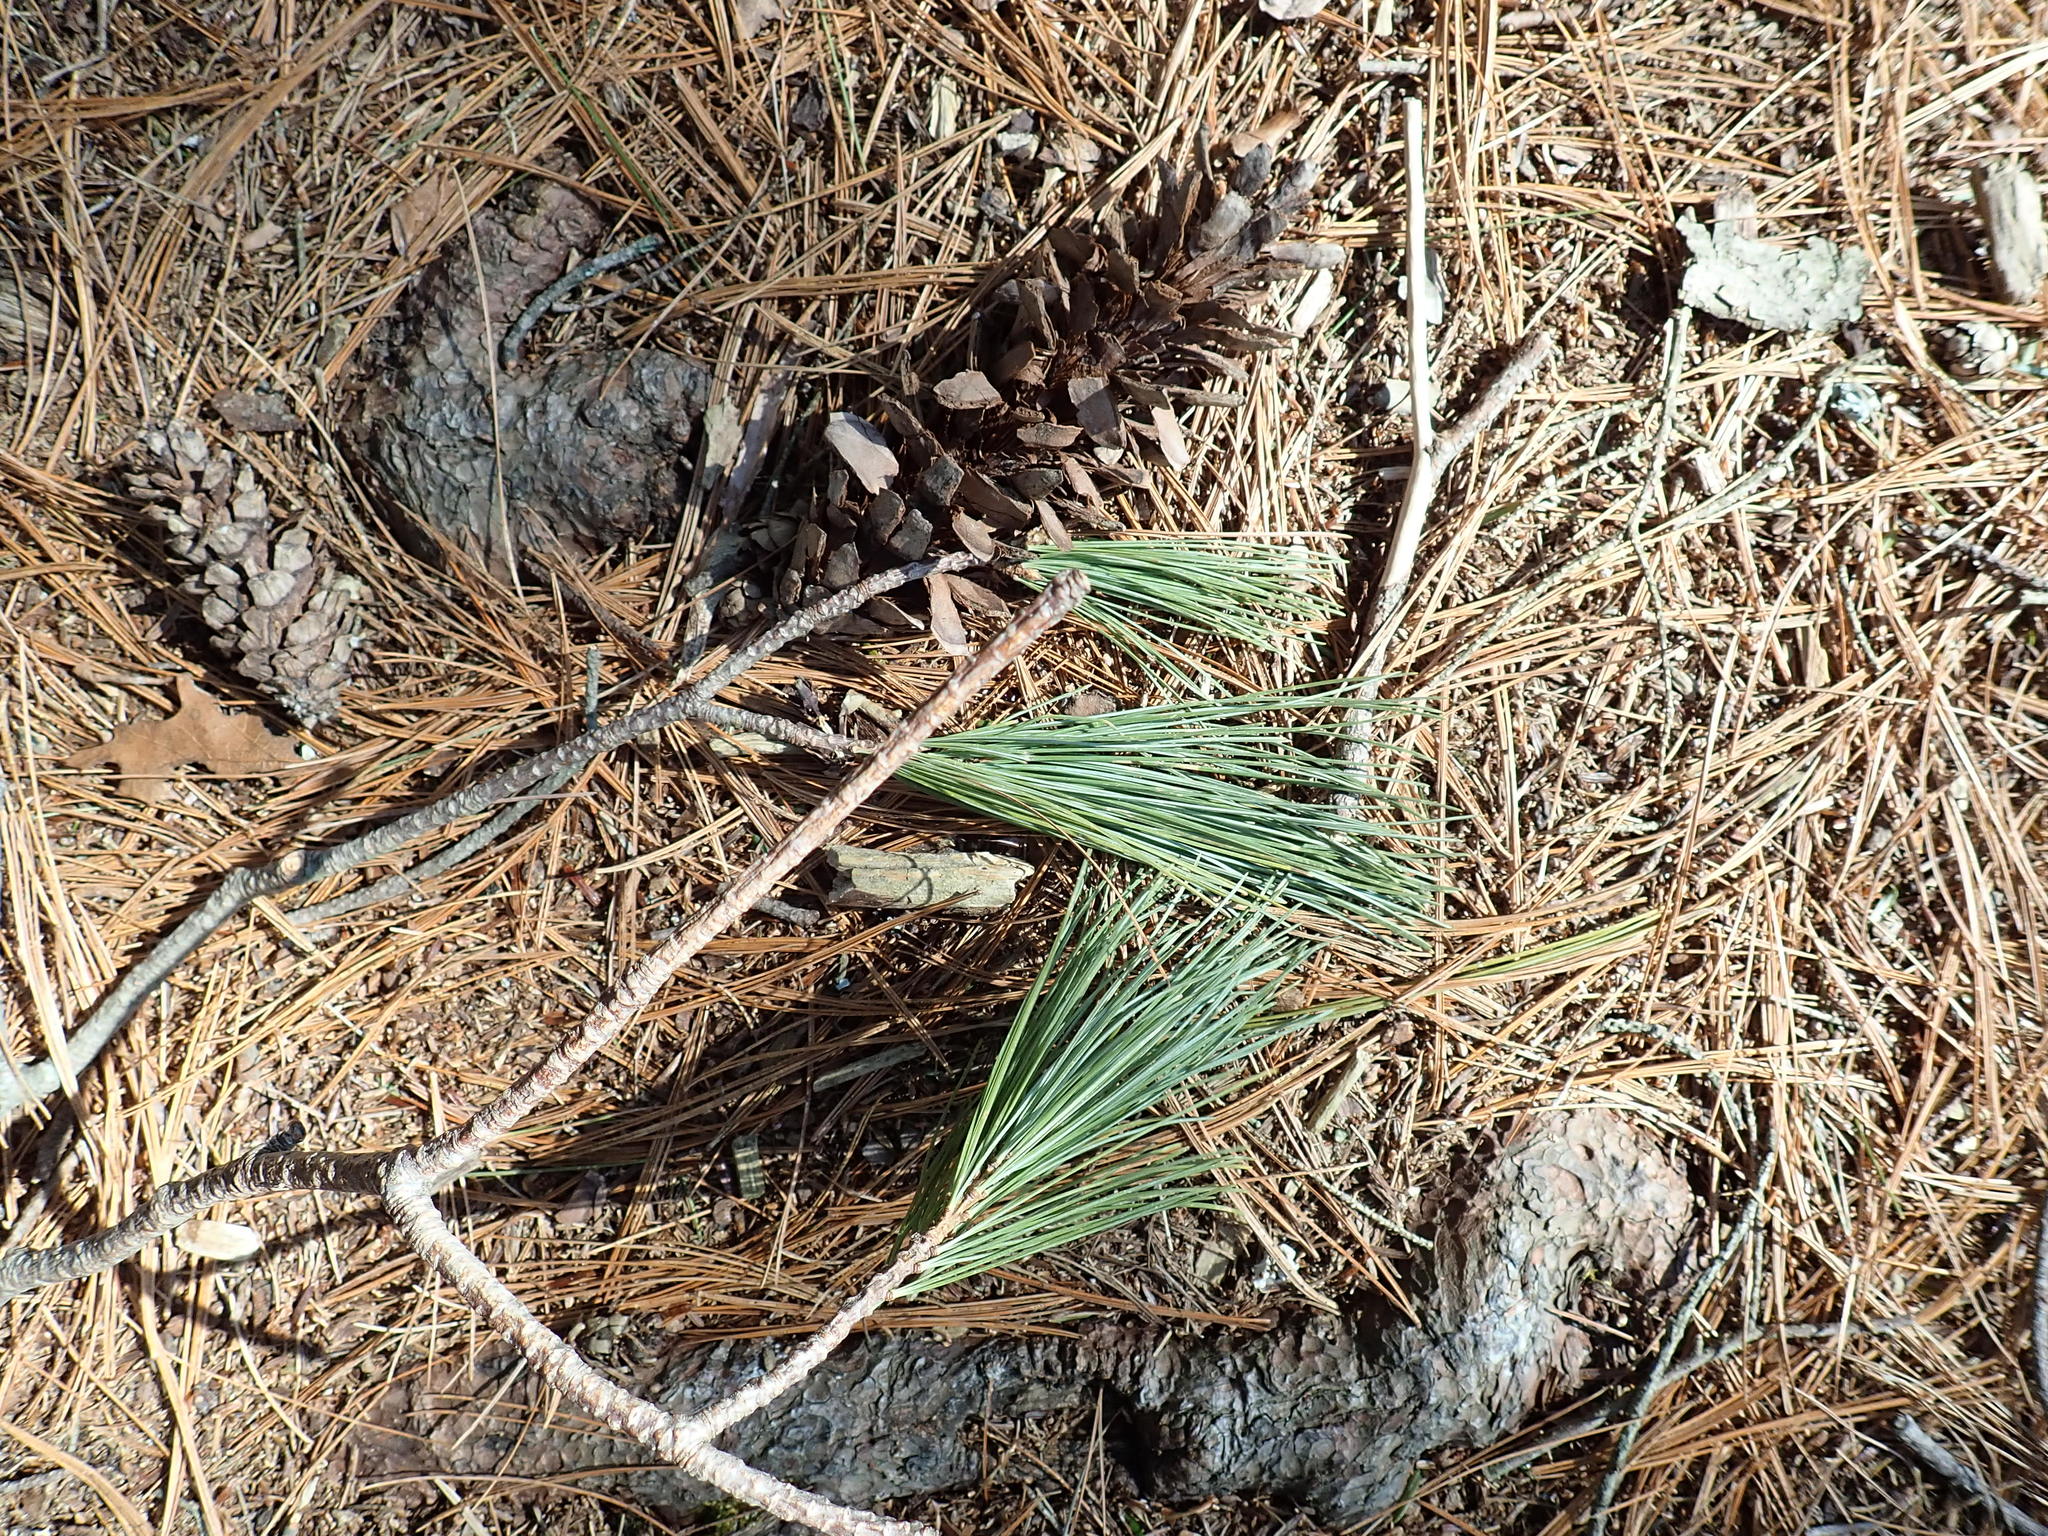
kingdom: Plantae
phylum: Tracheophyta
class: Pinopsida
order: Pinales
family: Pinaceae
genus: Pinus
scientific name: Pinus strobus
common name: Weymouth pine
